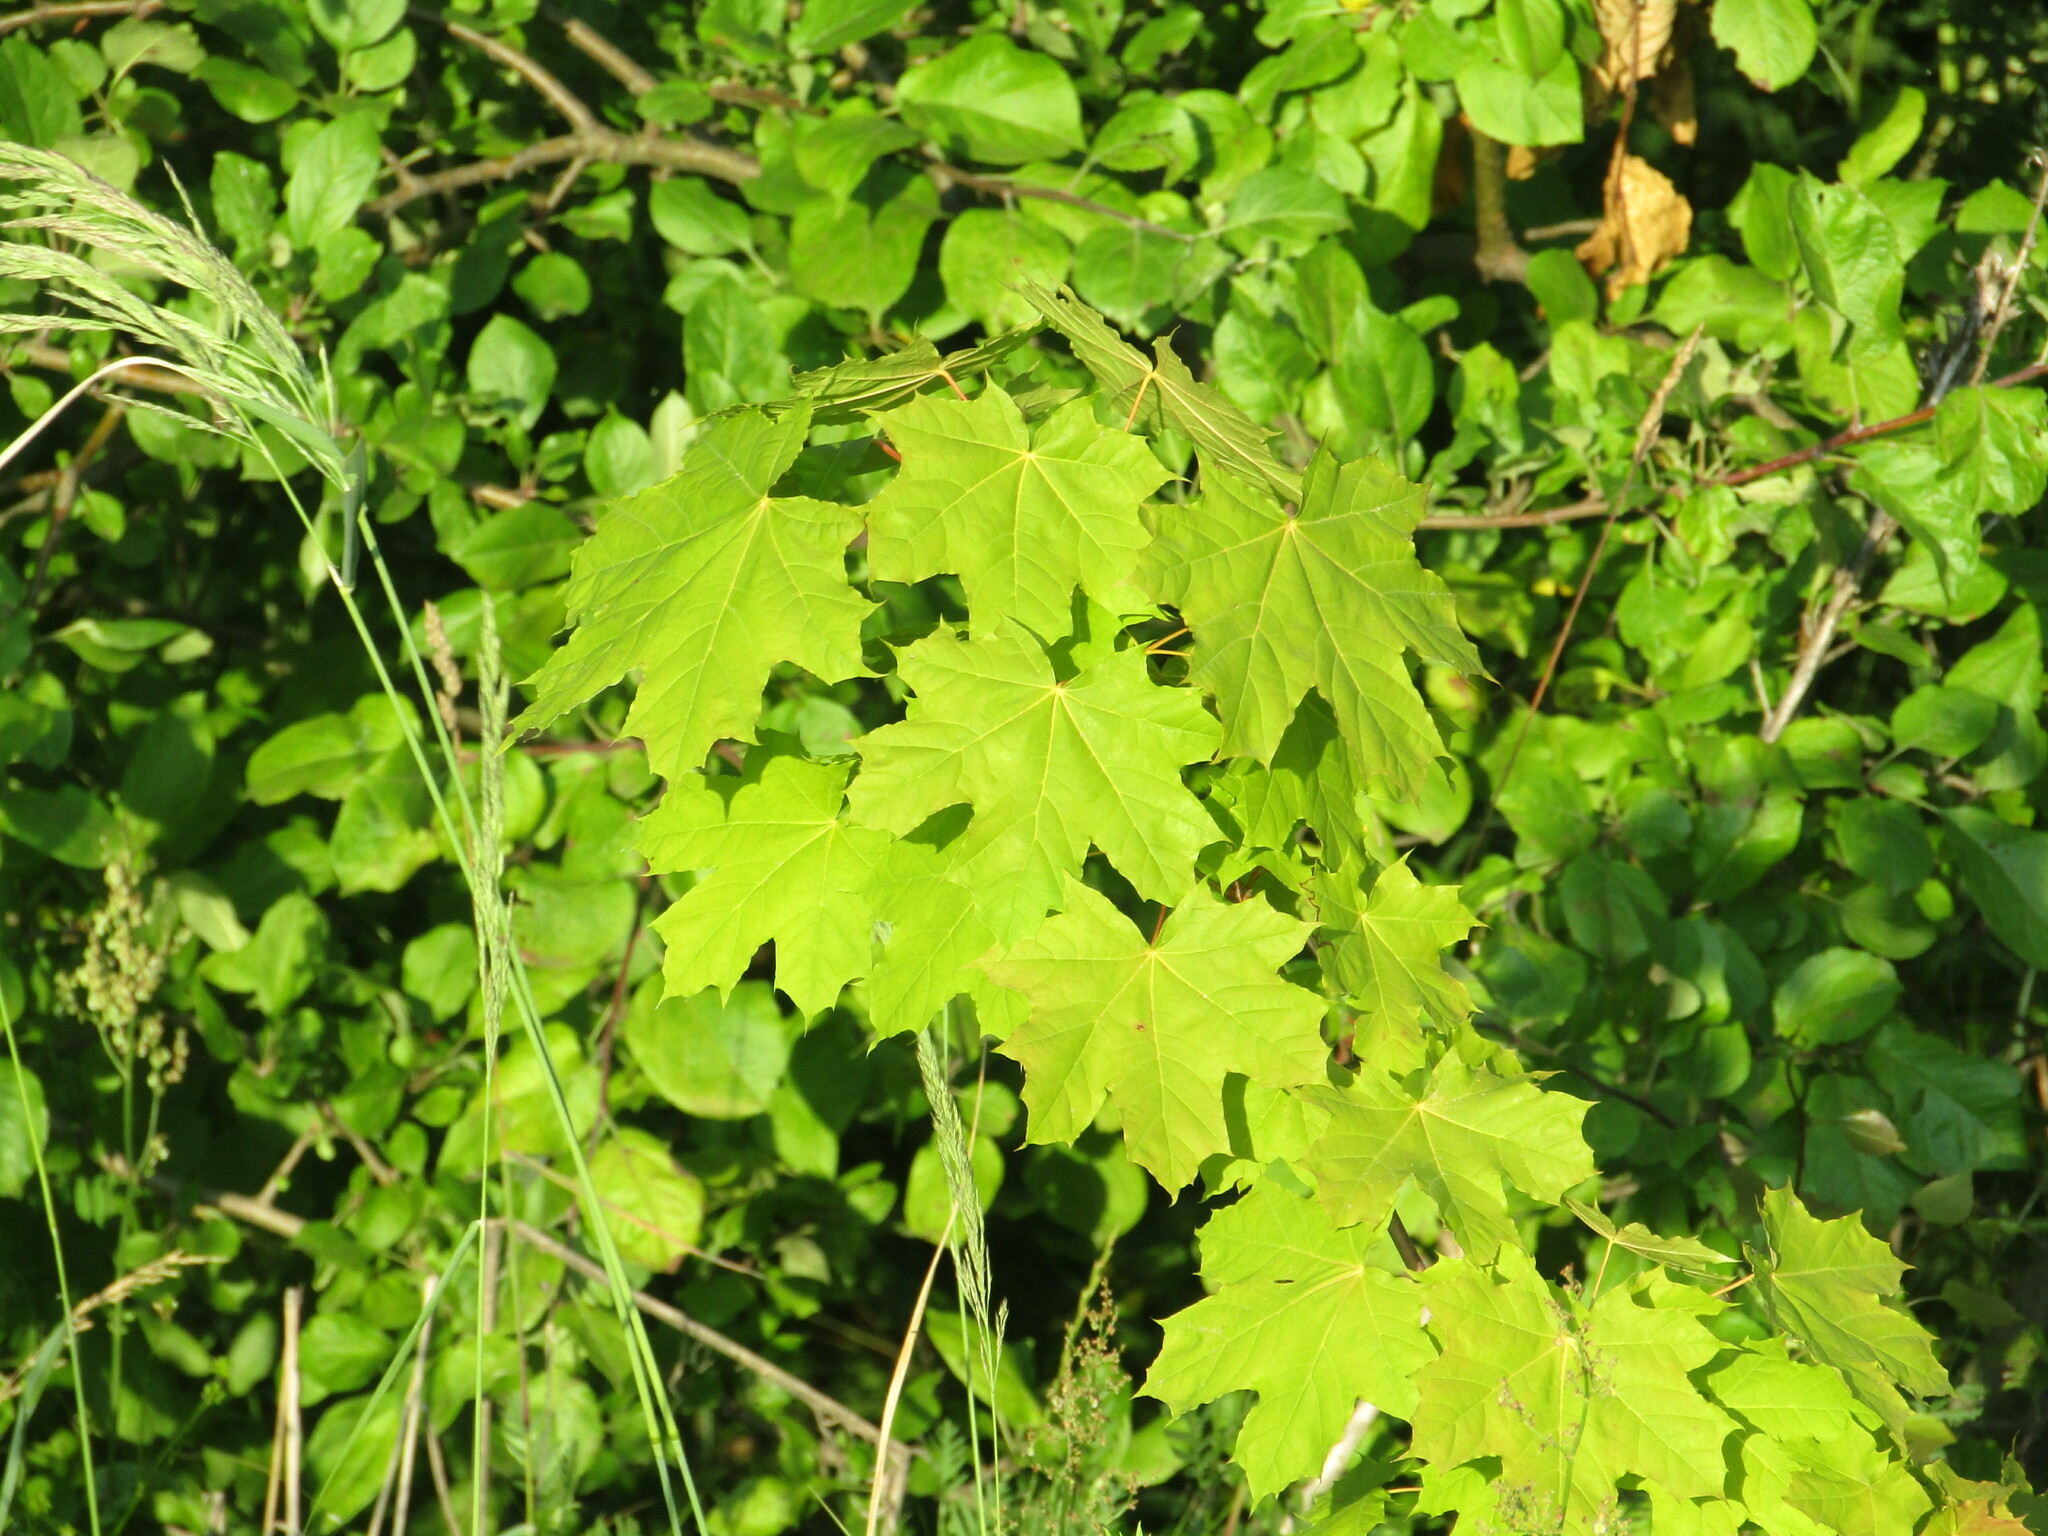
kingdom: Plantae
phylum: Tracheophyta
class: Magnoliopsida
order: Sapindales
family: Sapindaceae
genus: Acer
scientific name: Acer platanoides
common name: Norway maple
